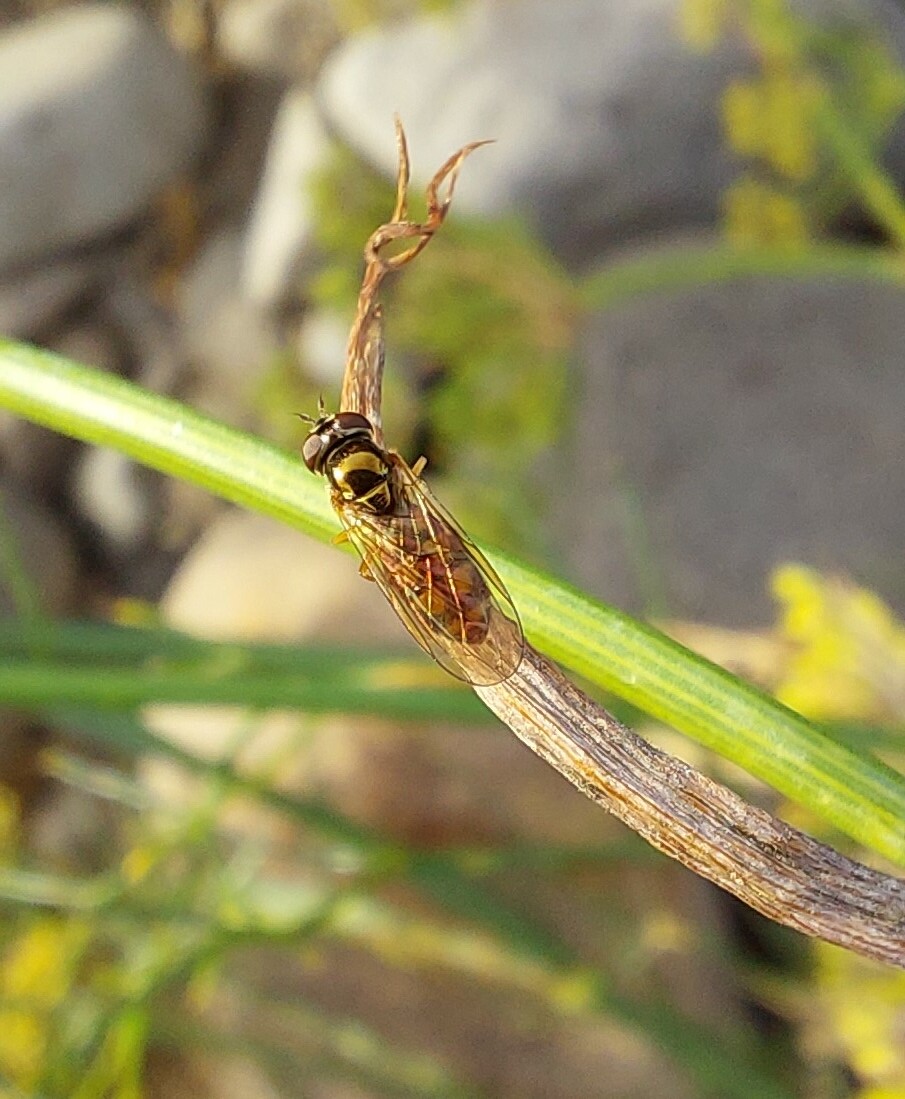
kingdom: Animalia
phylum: Arthropoda
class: Insecta
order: Diptera
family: Syrphidae
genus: Melanostoma
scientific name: Melanostoma fasciatum
